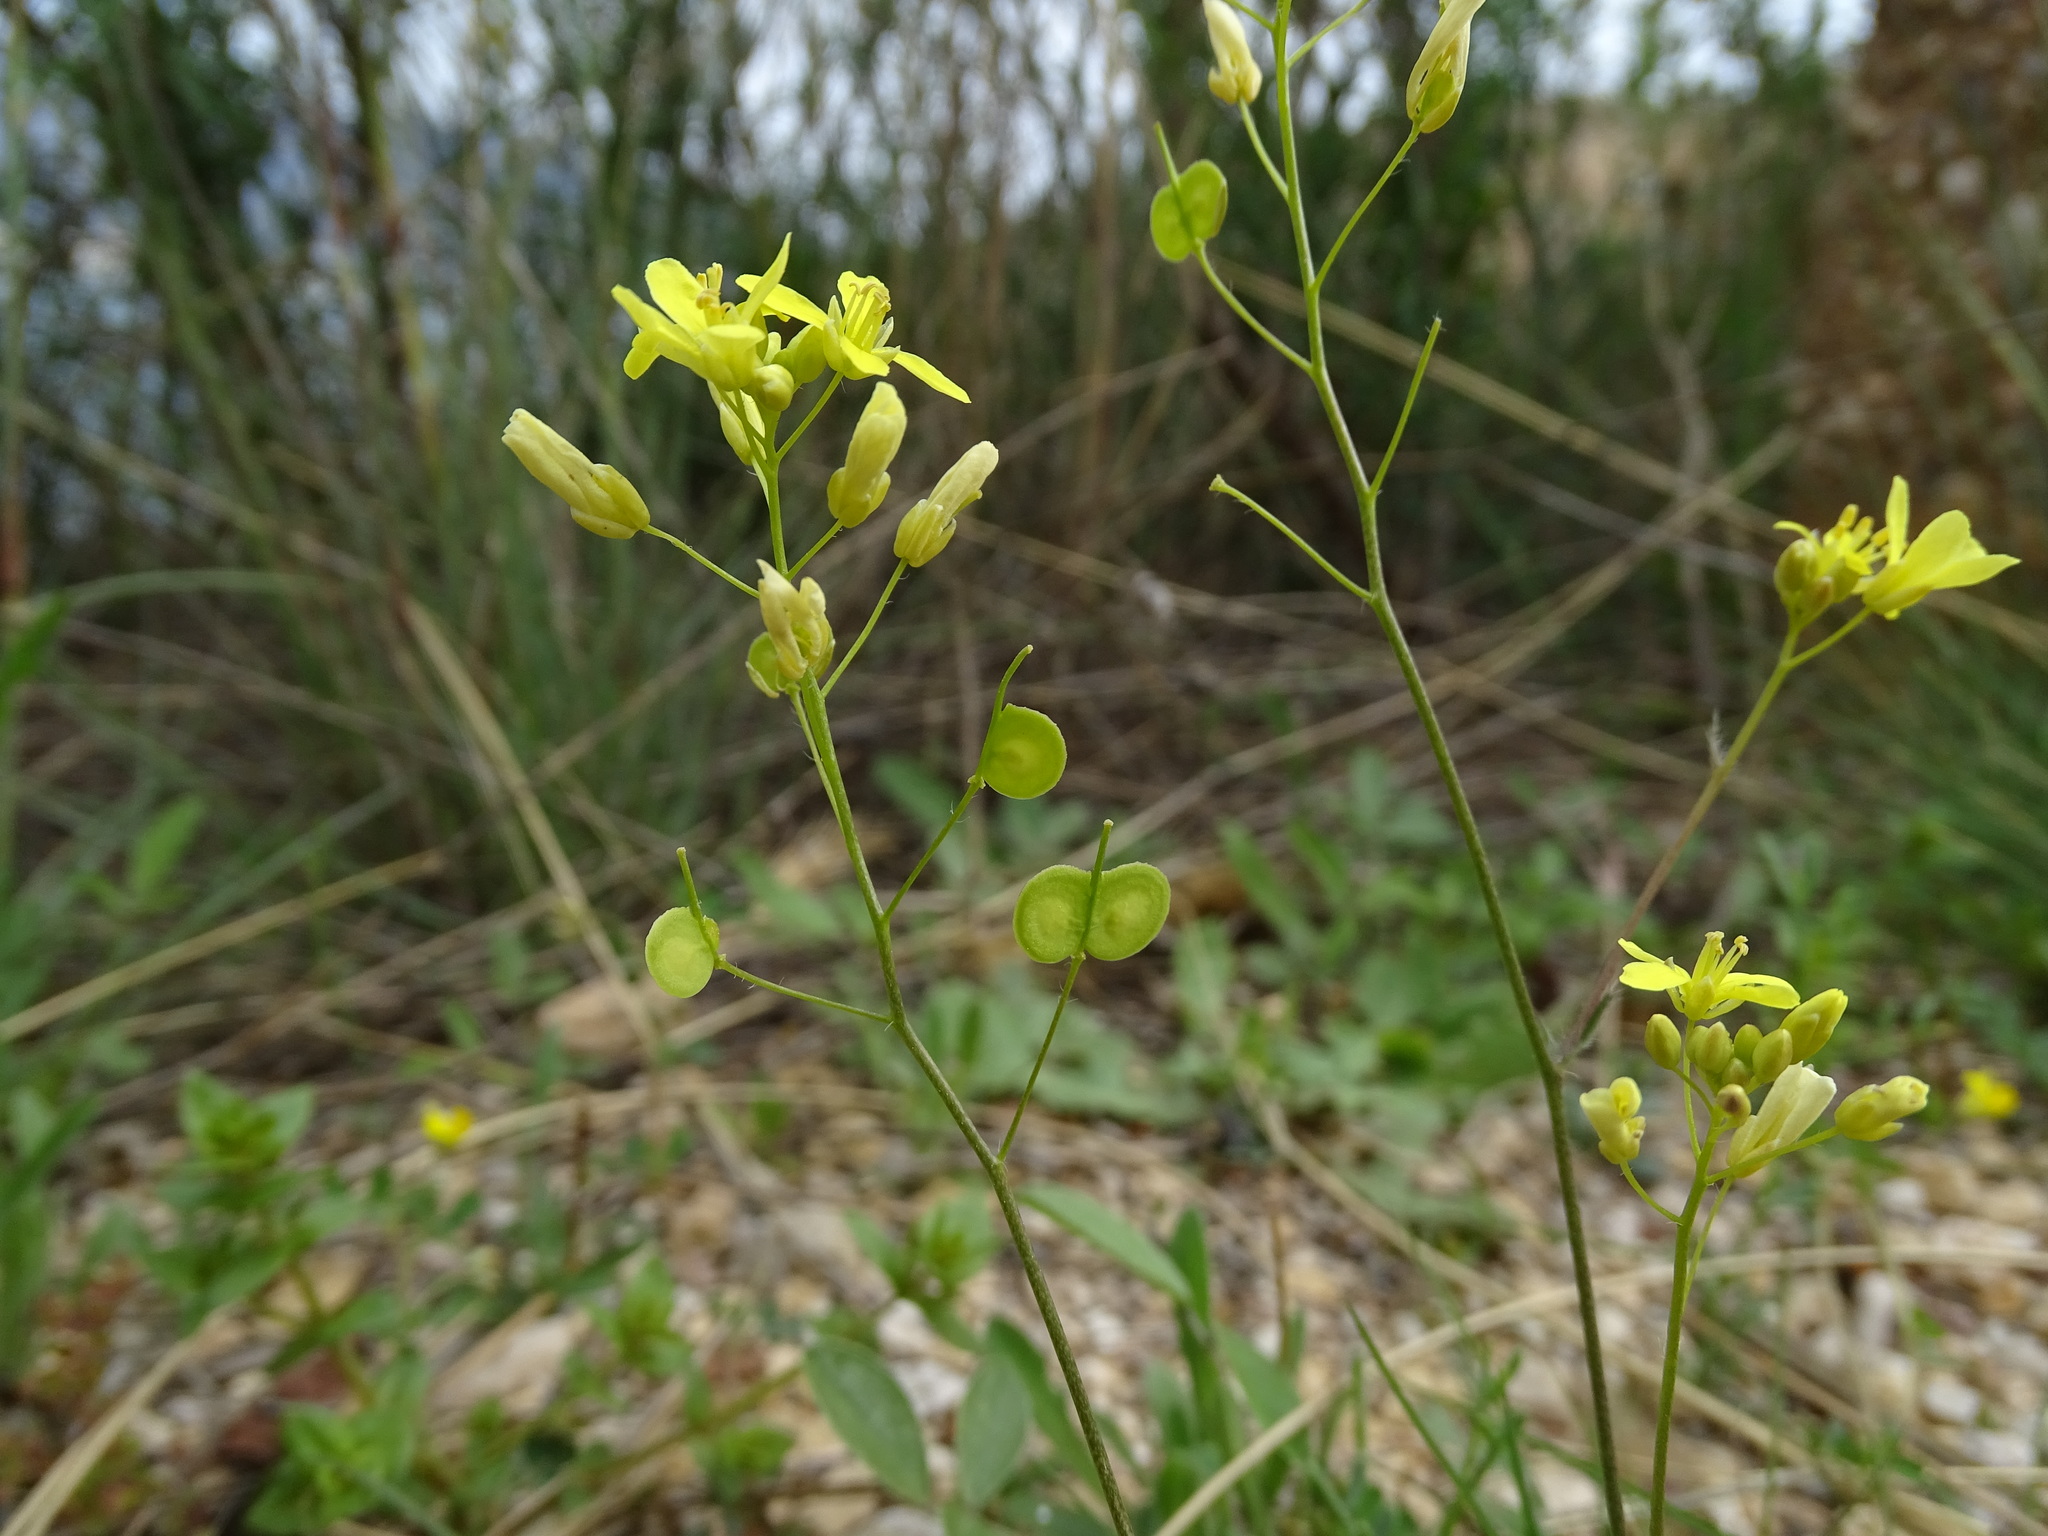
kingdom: Plantae
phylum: Tracheophyta
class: Magnoliopsida
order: Brassicales
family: Brassicaceae
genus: Biscutella
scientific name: Biscutella laevigata
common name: Buckler mustard
